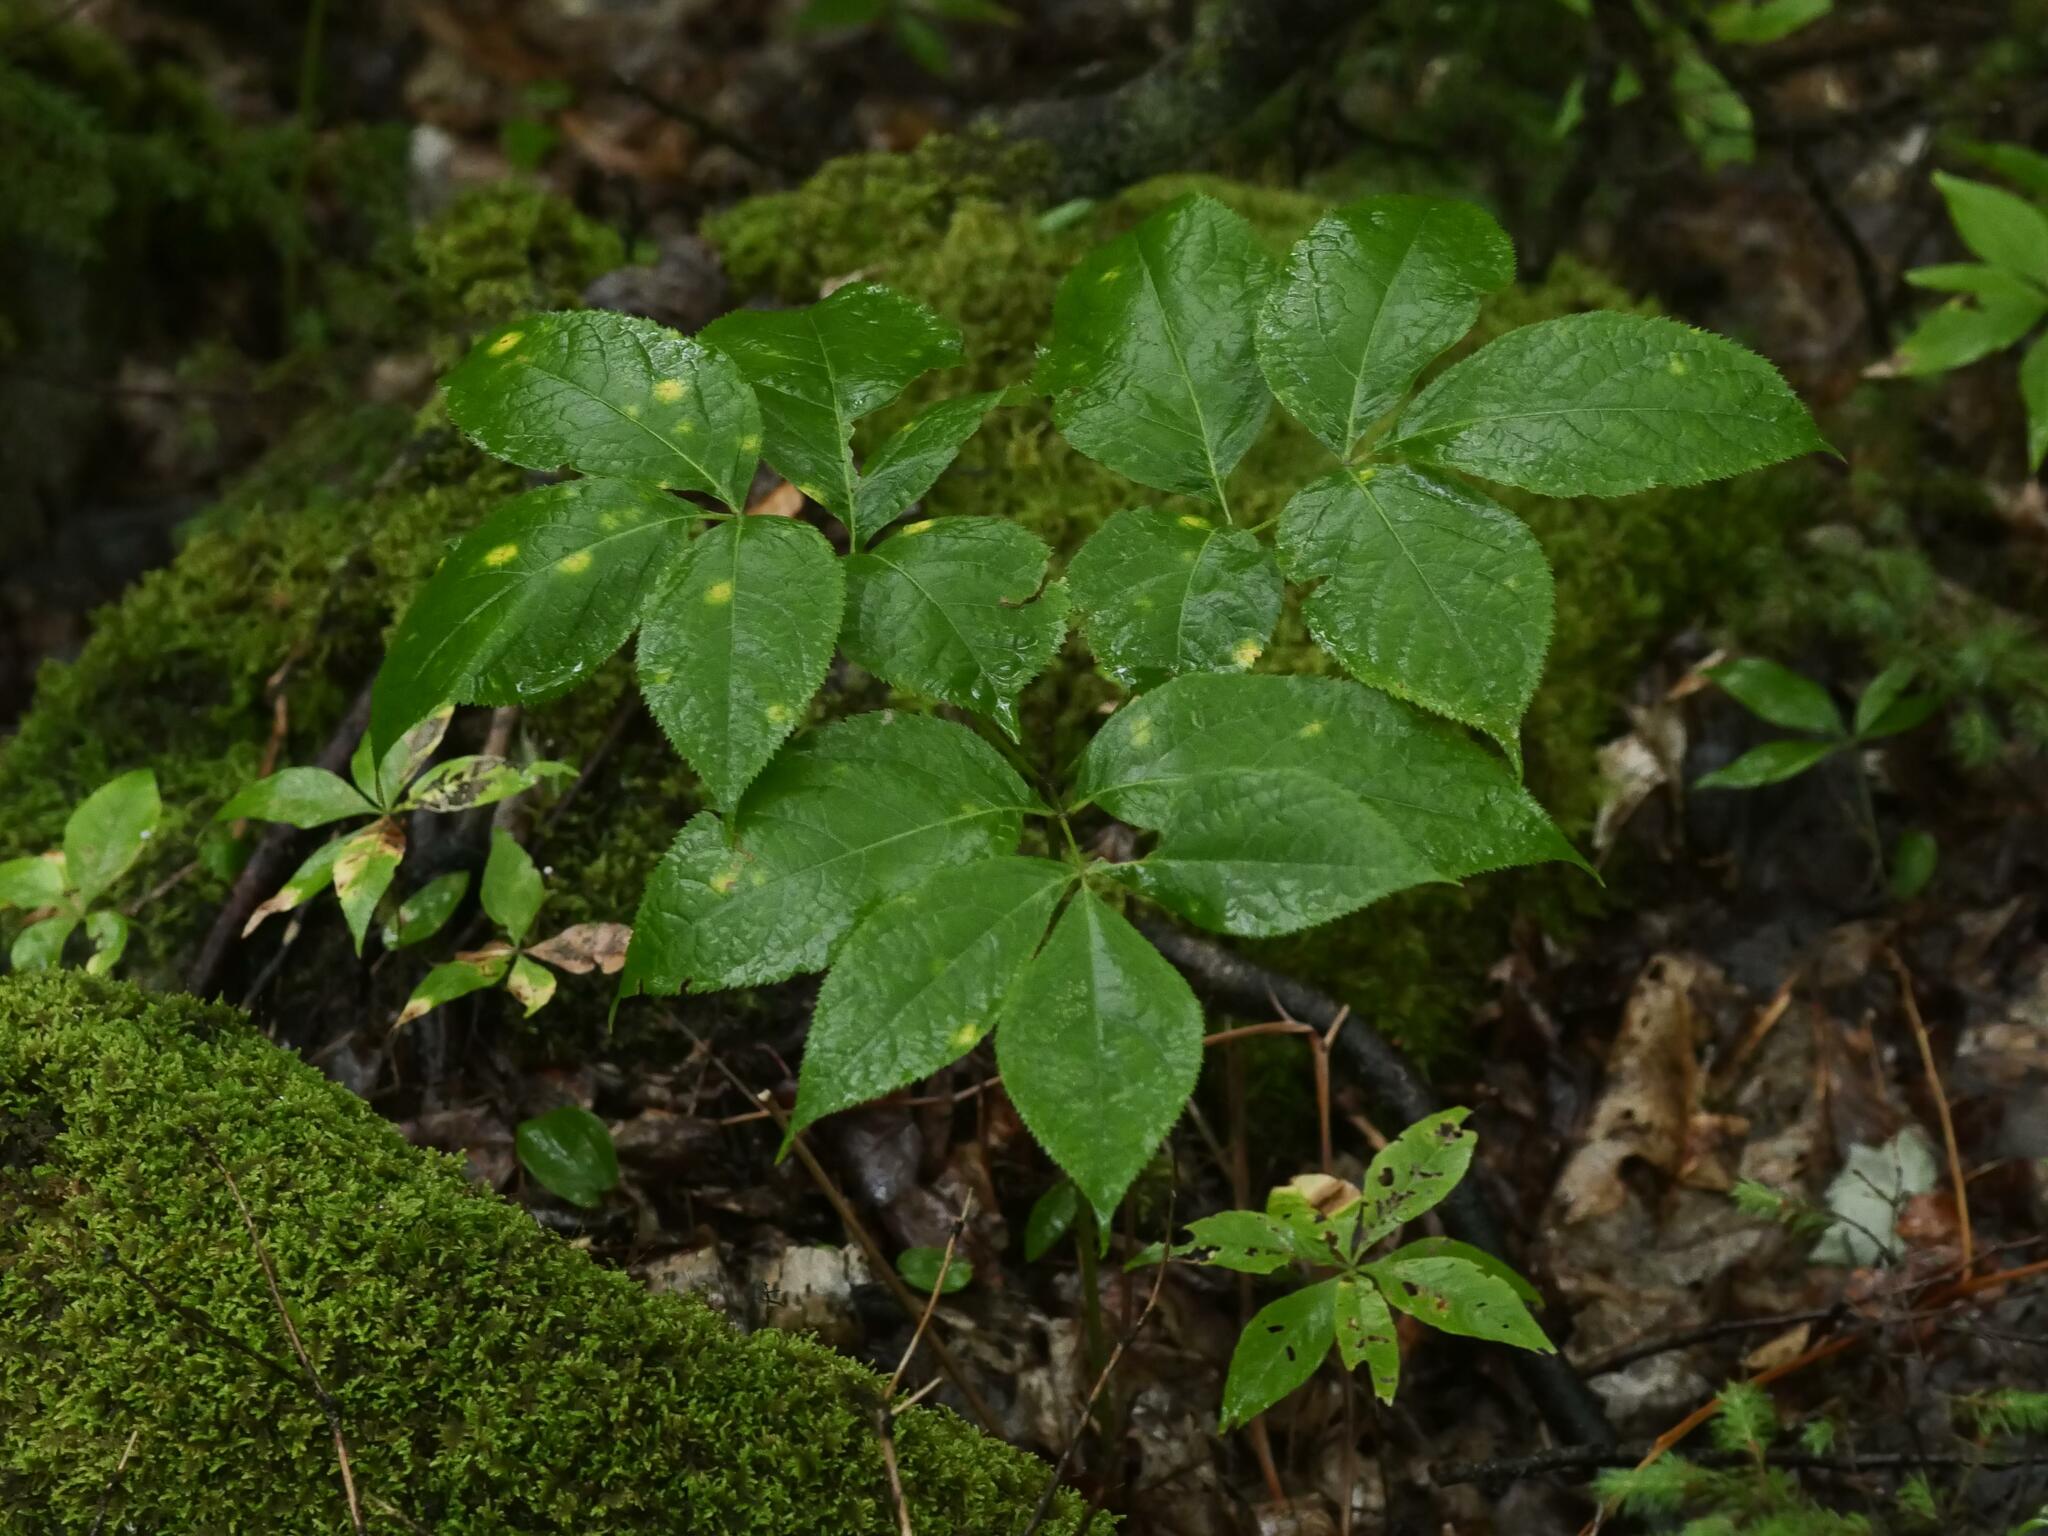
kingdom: Plantae
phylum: Tracheophyta
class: Magnoliopsida
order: Apiales
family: Araliaceae
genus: Aralia
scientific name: Aralia nudicaulis
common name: Wild sarsaparilla
